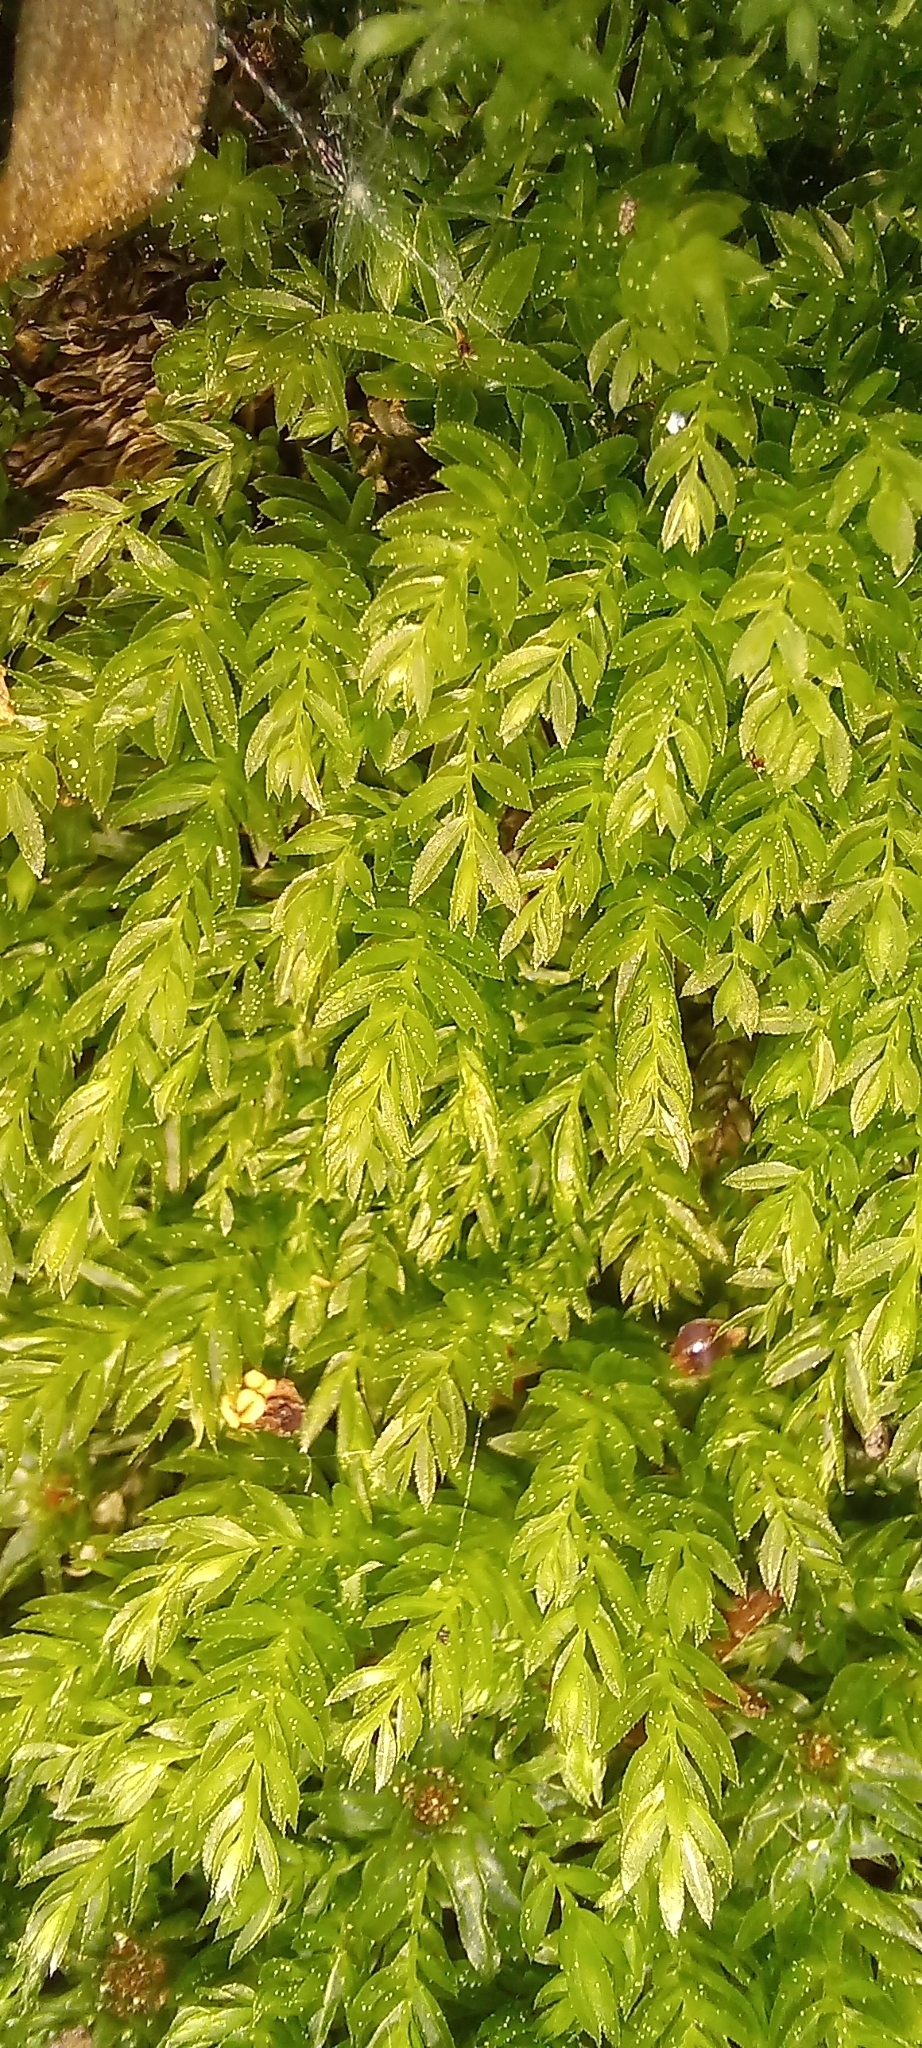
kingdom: Plantae
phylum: Bryophyta
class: Bryopsida
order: Bryales
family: Mniaceae
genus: Mnium
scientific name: Mnium hornum
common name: Swan's-neck leafy moss
